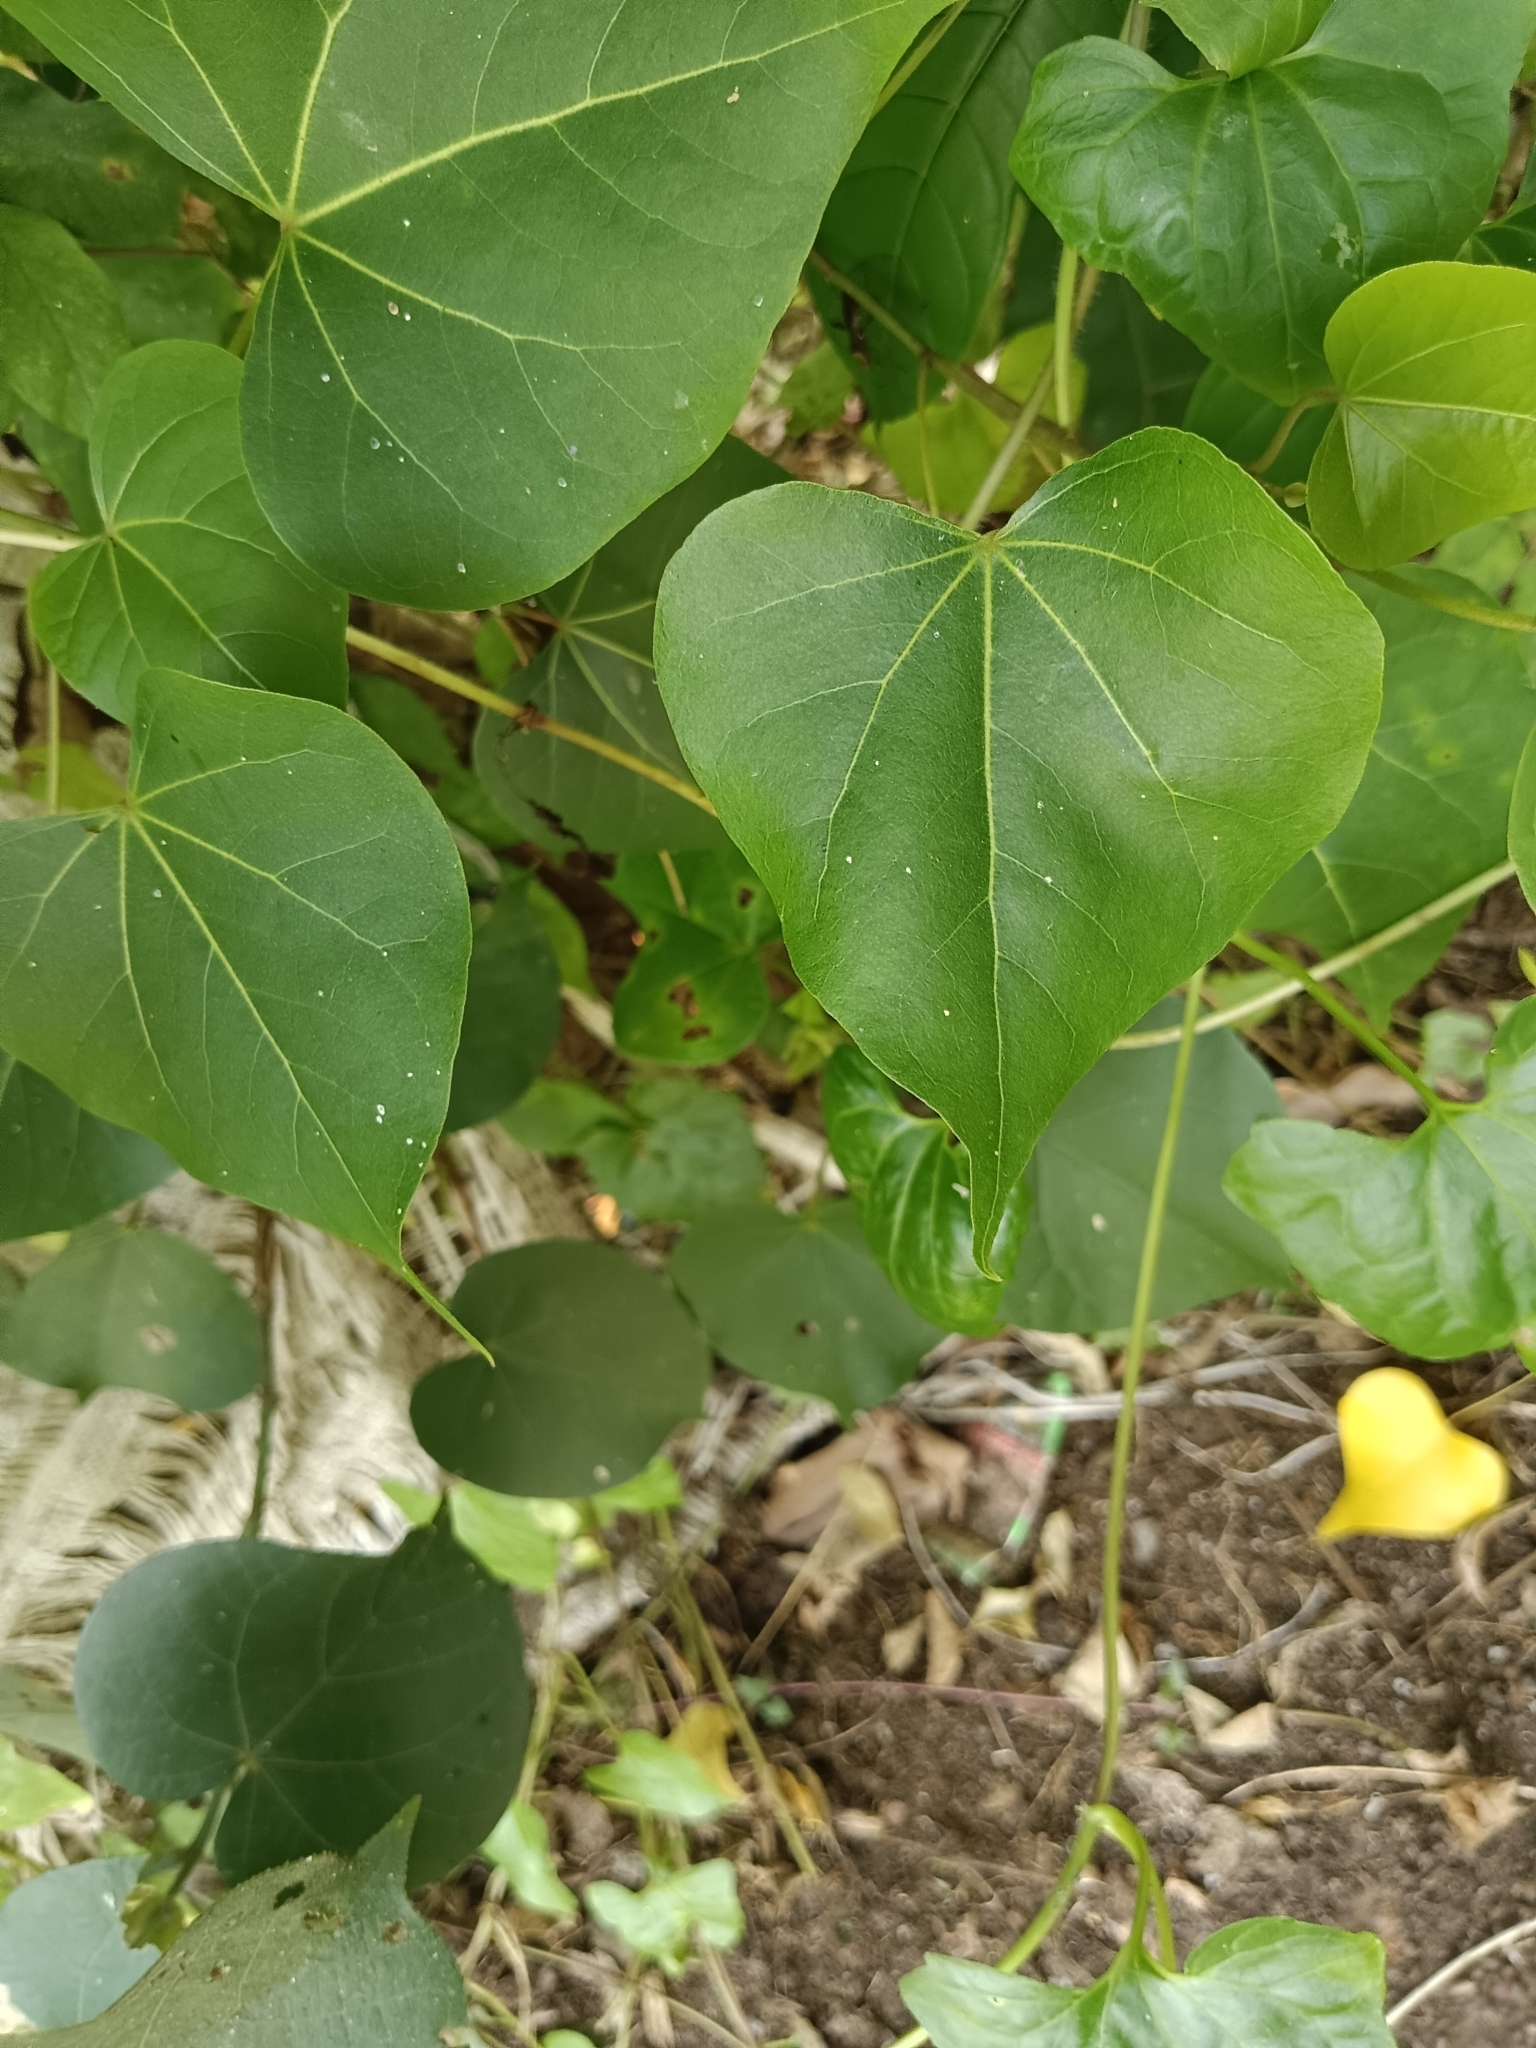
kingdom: Plantae
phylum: Tracheophyta
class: Magnoliopsida
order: Malvales
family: Malvaceae
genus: Thespesia
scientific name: Thespesia populnea
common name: Seaside mahoe
